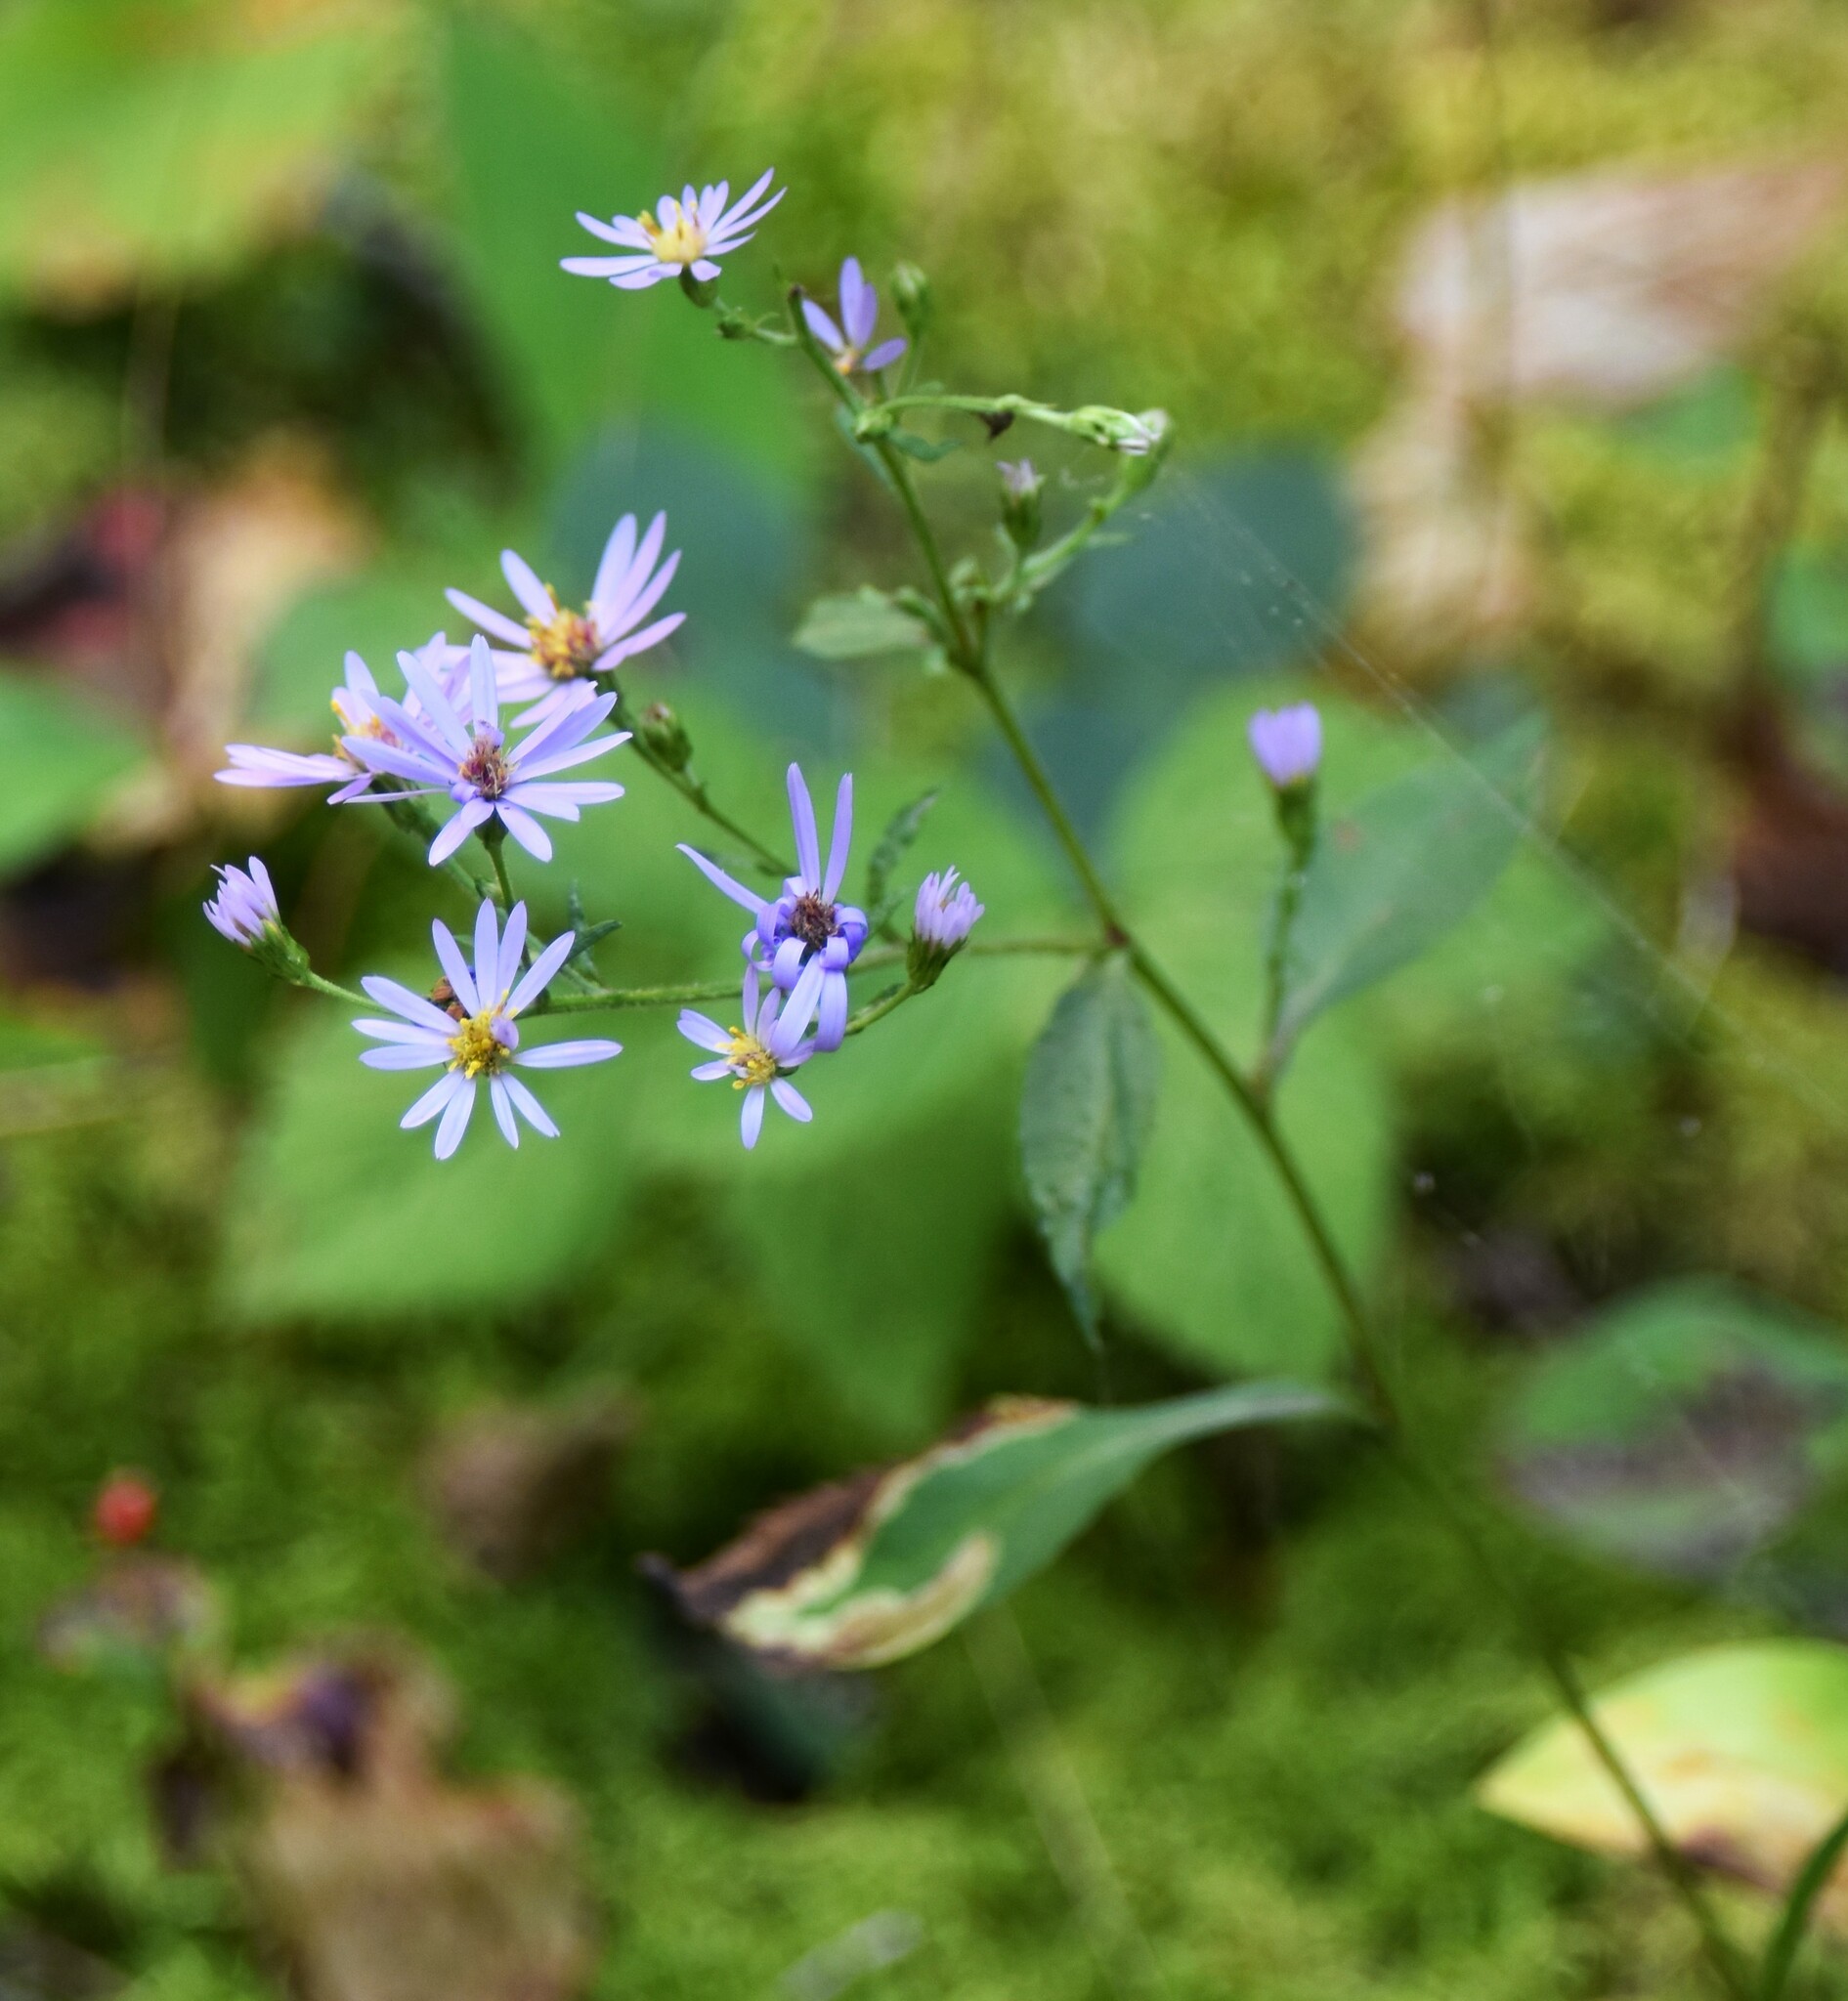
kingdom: Plantae
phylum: Tracheophyta
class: Magnoliopsida
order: Asterales
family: Asteraceae
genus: Symphyotrichum
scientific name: Symphyotrichum ciliolatum
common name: Fringed blue aster
